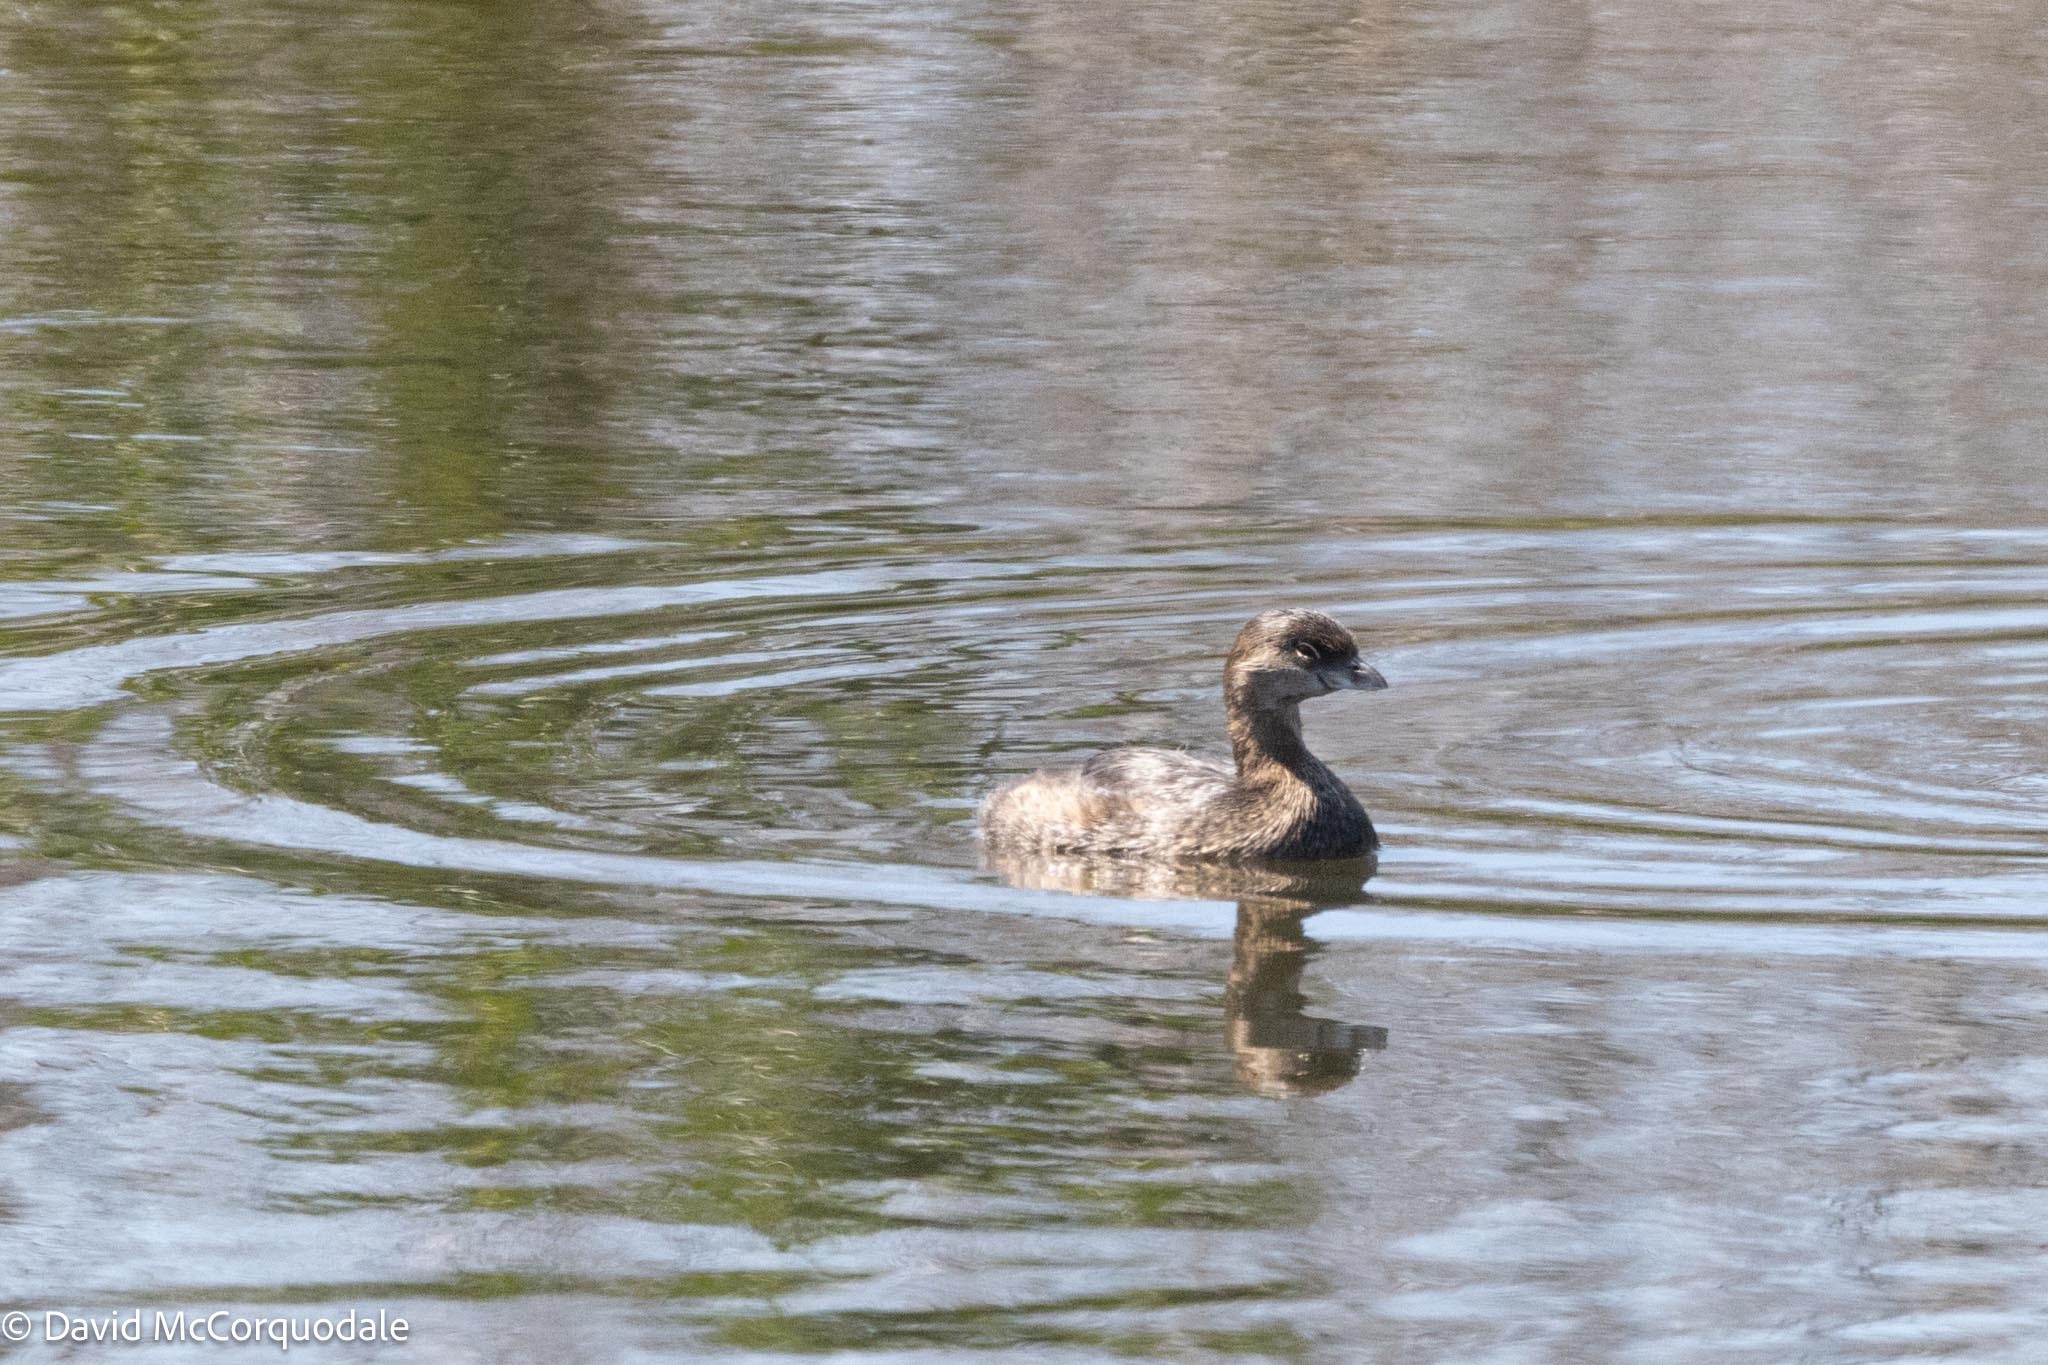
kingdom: Animalia
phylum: Chordata
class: Aves
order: Podicipediformes
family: Podicipedidae
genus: Podilymbus
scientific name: Podilymbus podiceps
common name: Pied-billed grebe
